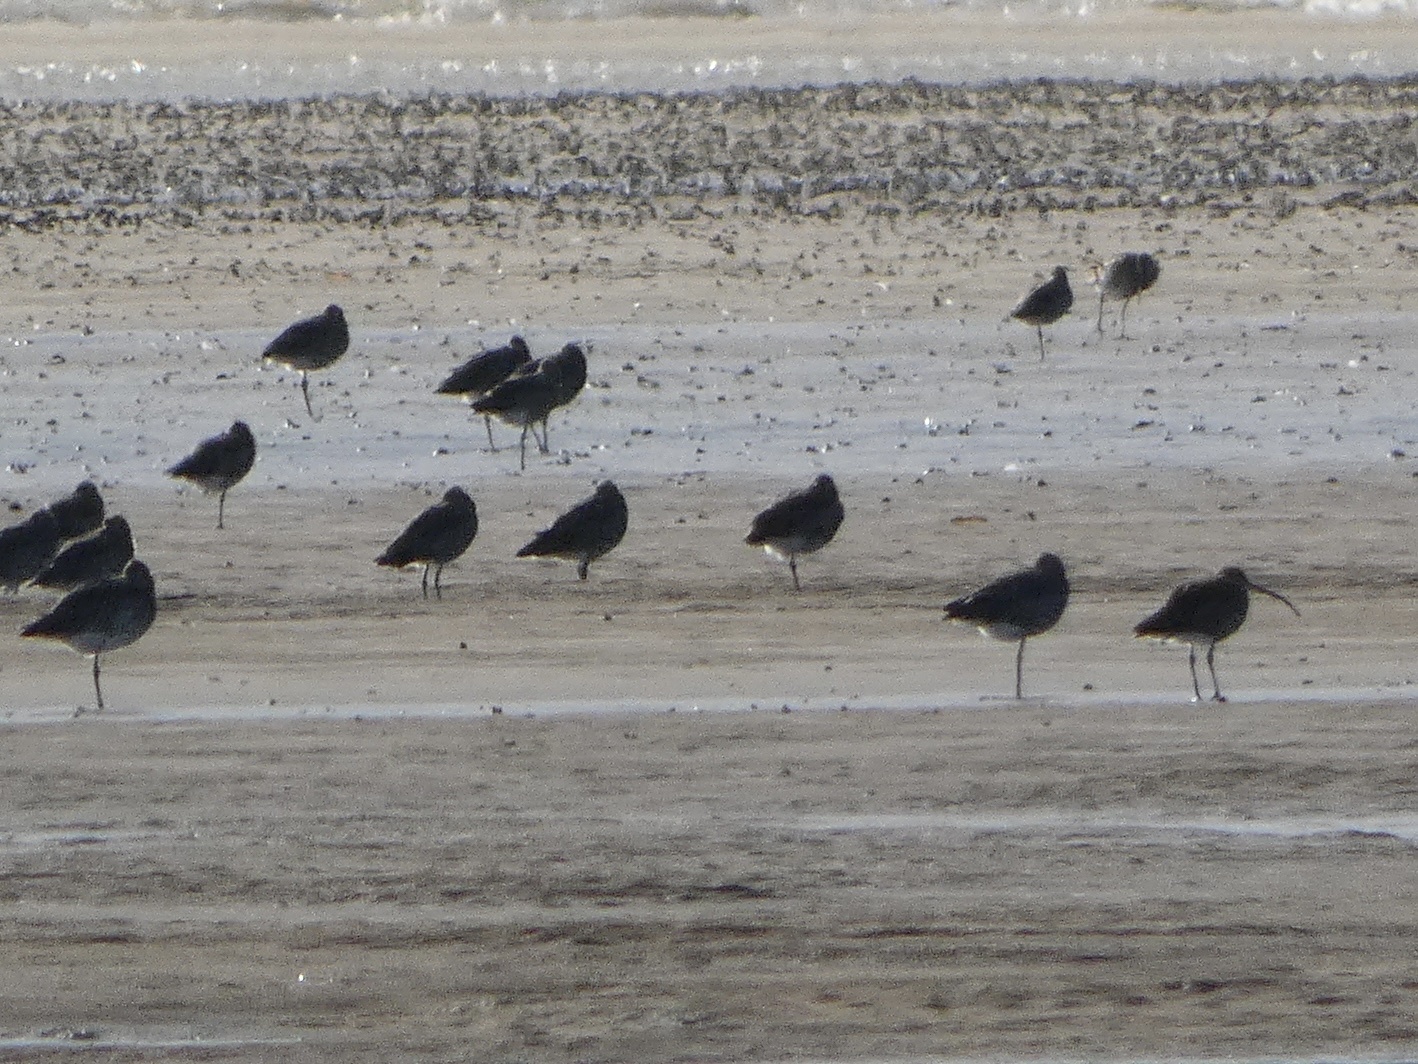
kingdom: Animalia
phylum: Chordata
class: Aves
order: Charadriiformes
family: Scolopacidae
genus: Numenius
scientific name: Numenius arquata
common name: Eurasian curlew
